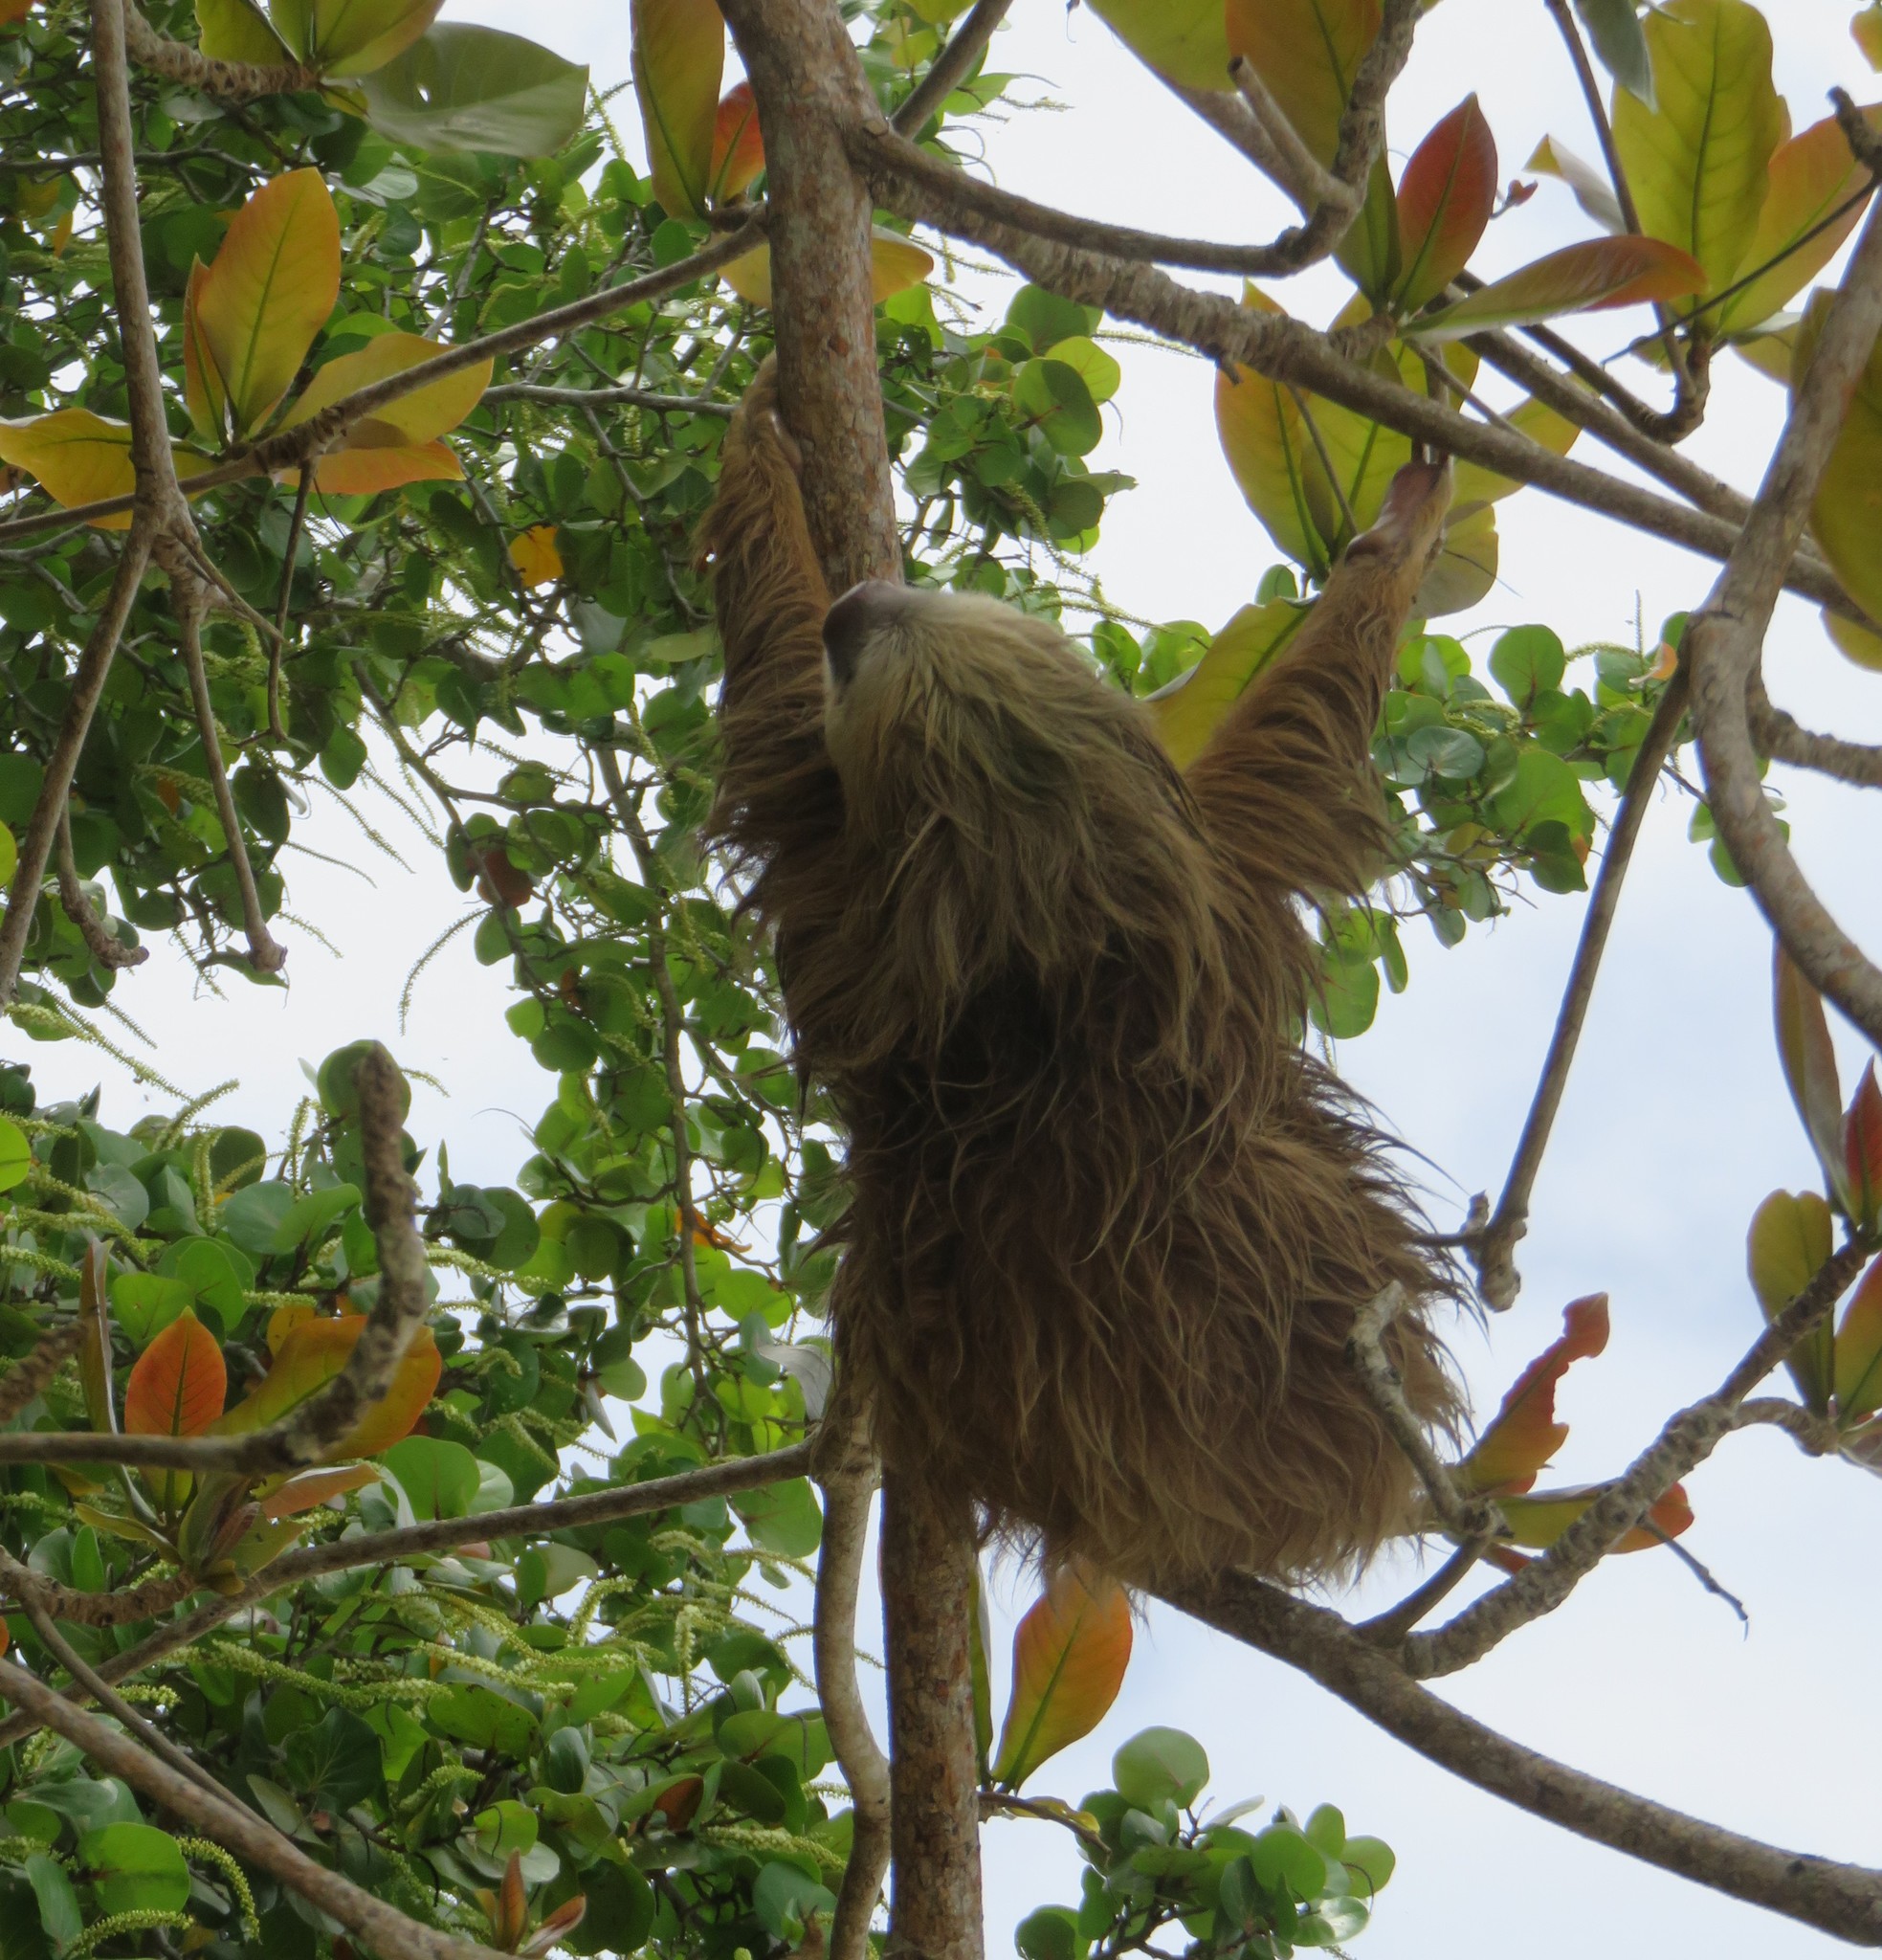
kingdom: Animalia
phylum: Chordata
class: Mammalia
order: Pilosa
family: Megalonychidae
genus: Choloepus
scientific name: Choloepus hoffmanni
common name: Hoffmann's two-toed sloth
